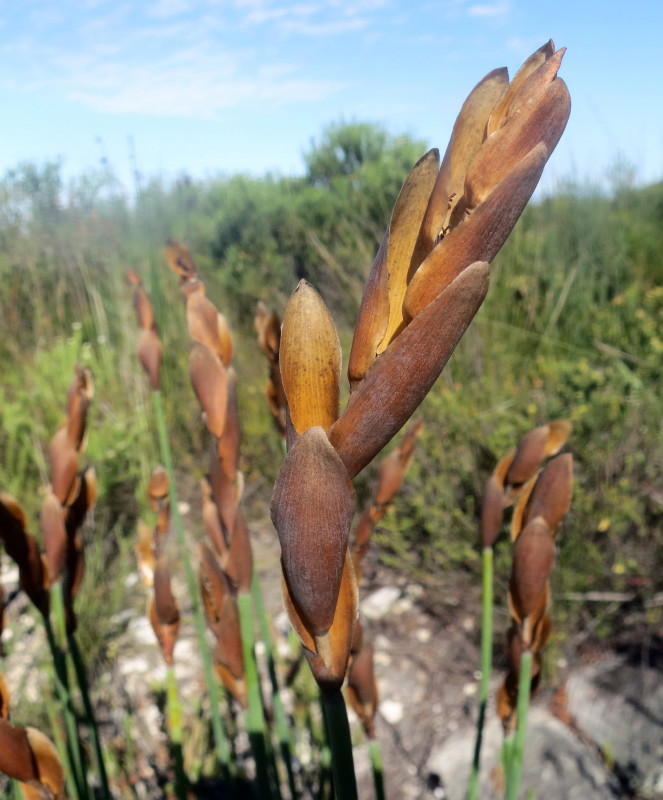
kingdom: Plantae
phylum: Tracheophyta
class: Liliopsida
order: Poales
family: Restionaceae
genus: Elegia
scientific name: Elegia thyrsoidea
